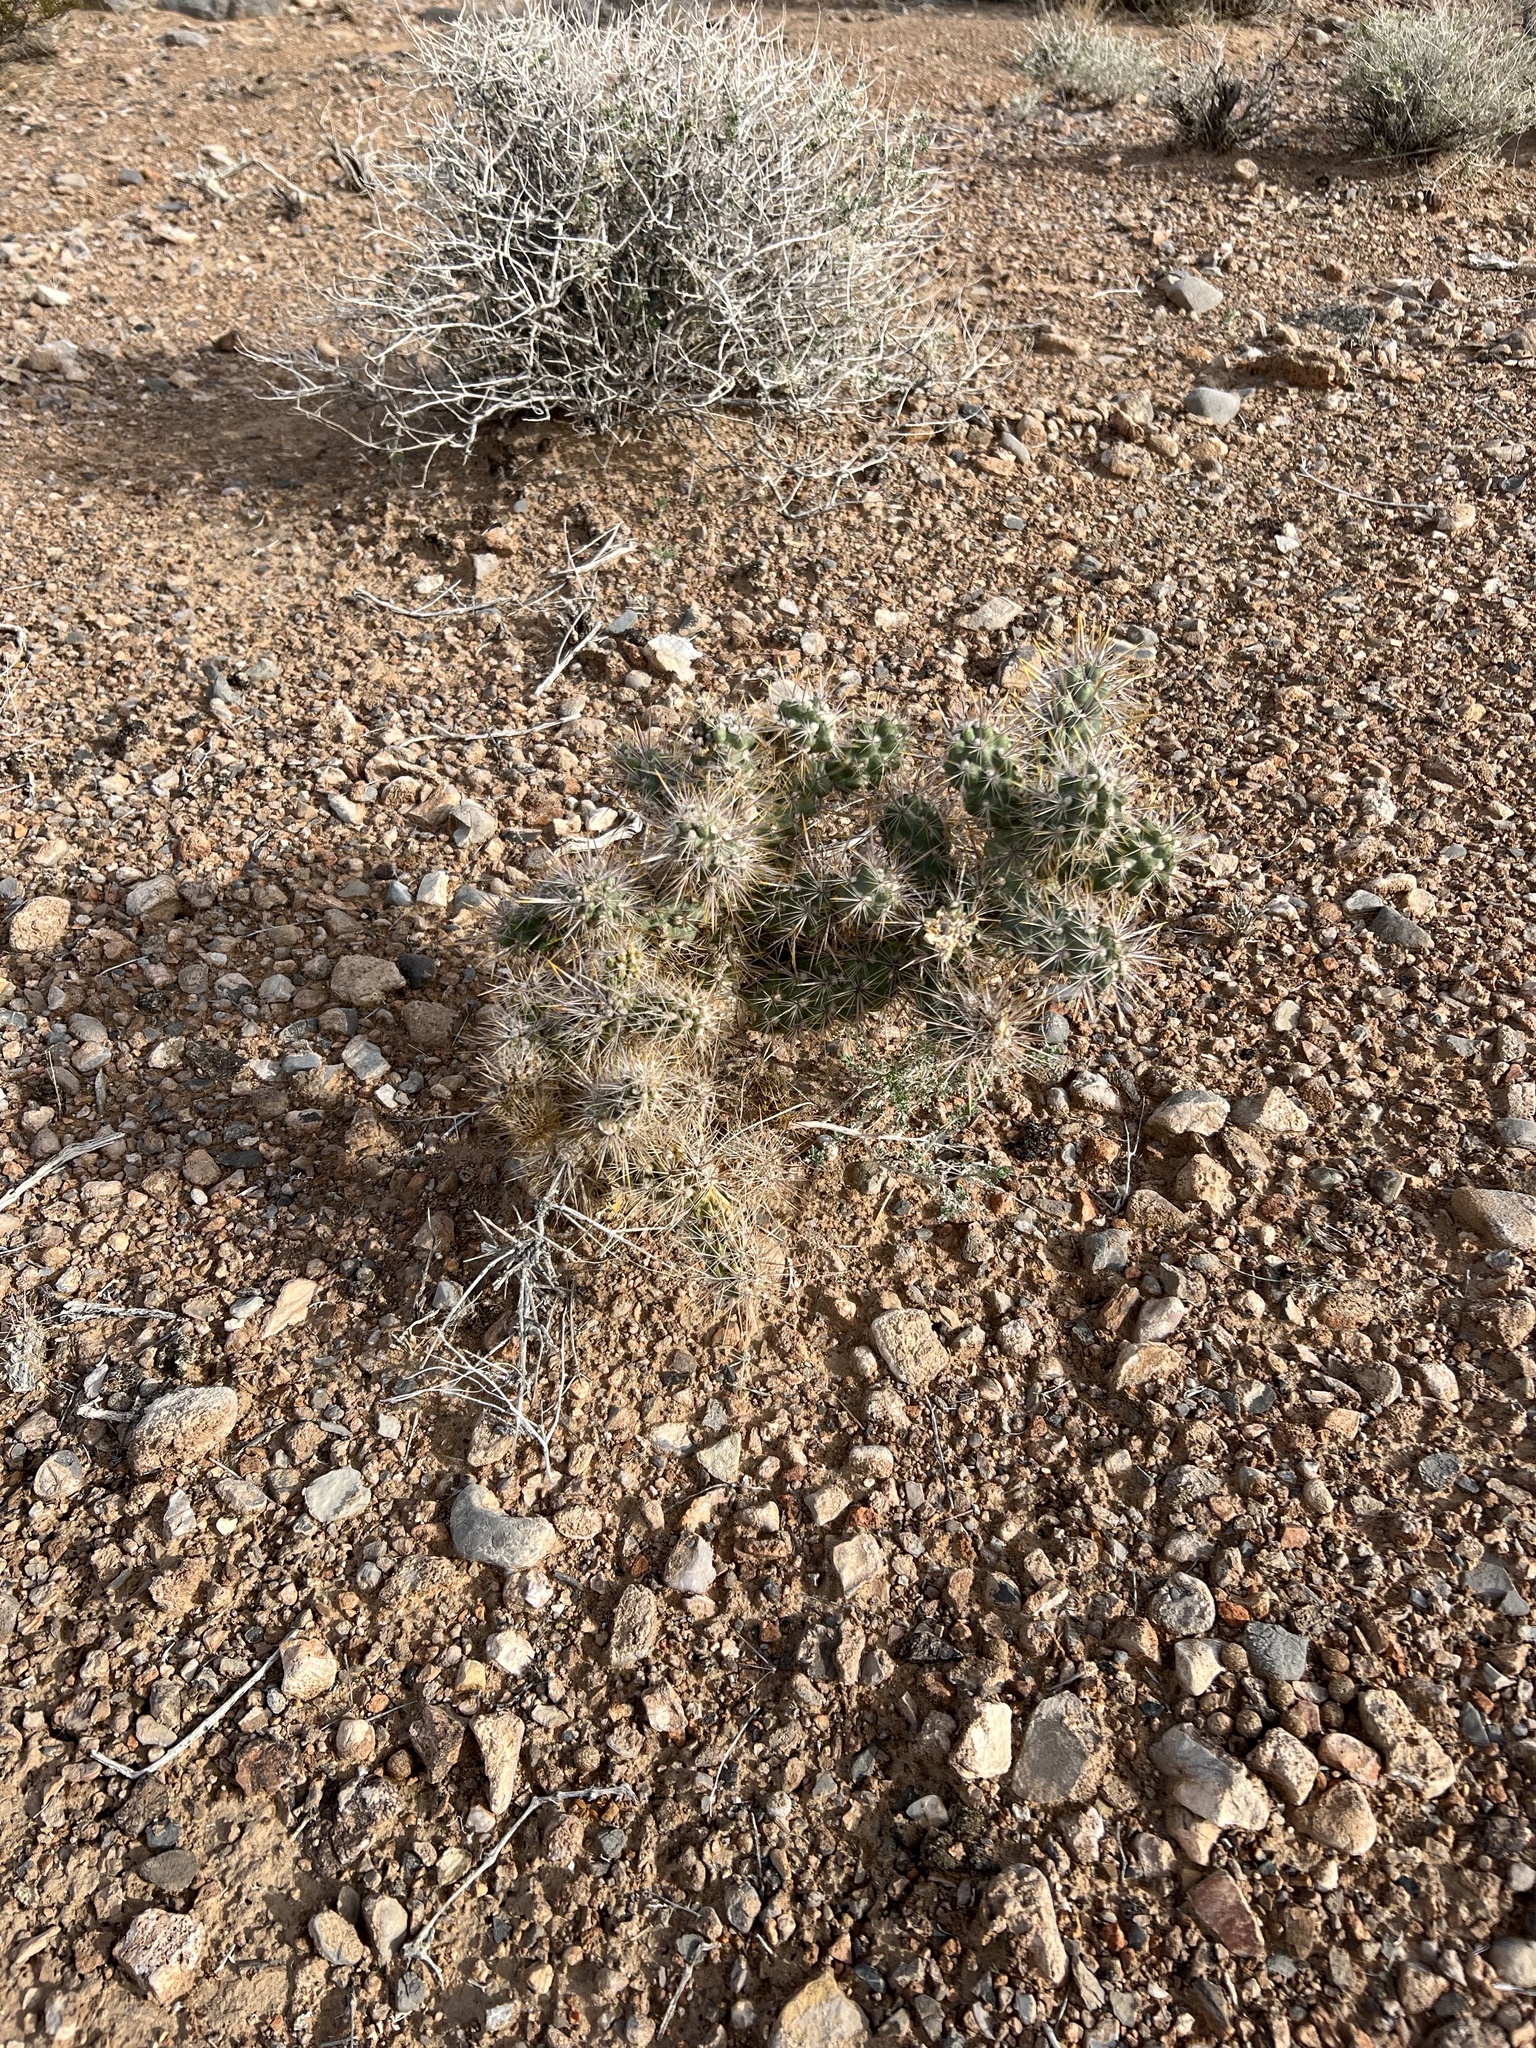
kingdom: Plantae
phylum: Tracheophyta
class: Magnoliopsida
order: Caryophyllales
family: Cactaceae
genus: Cylindropuntia
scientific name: Cylindropuntia echinocarpa
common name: Ground cholla
